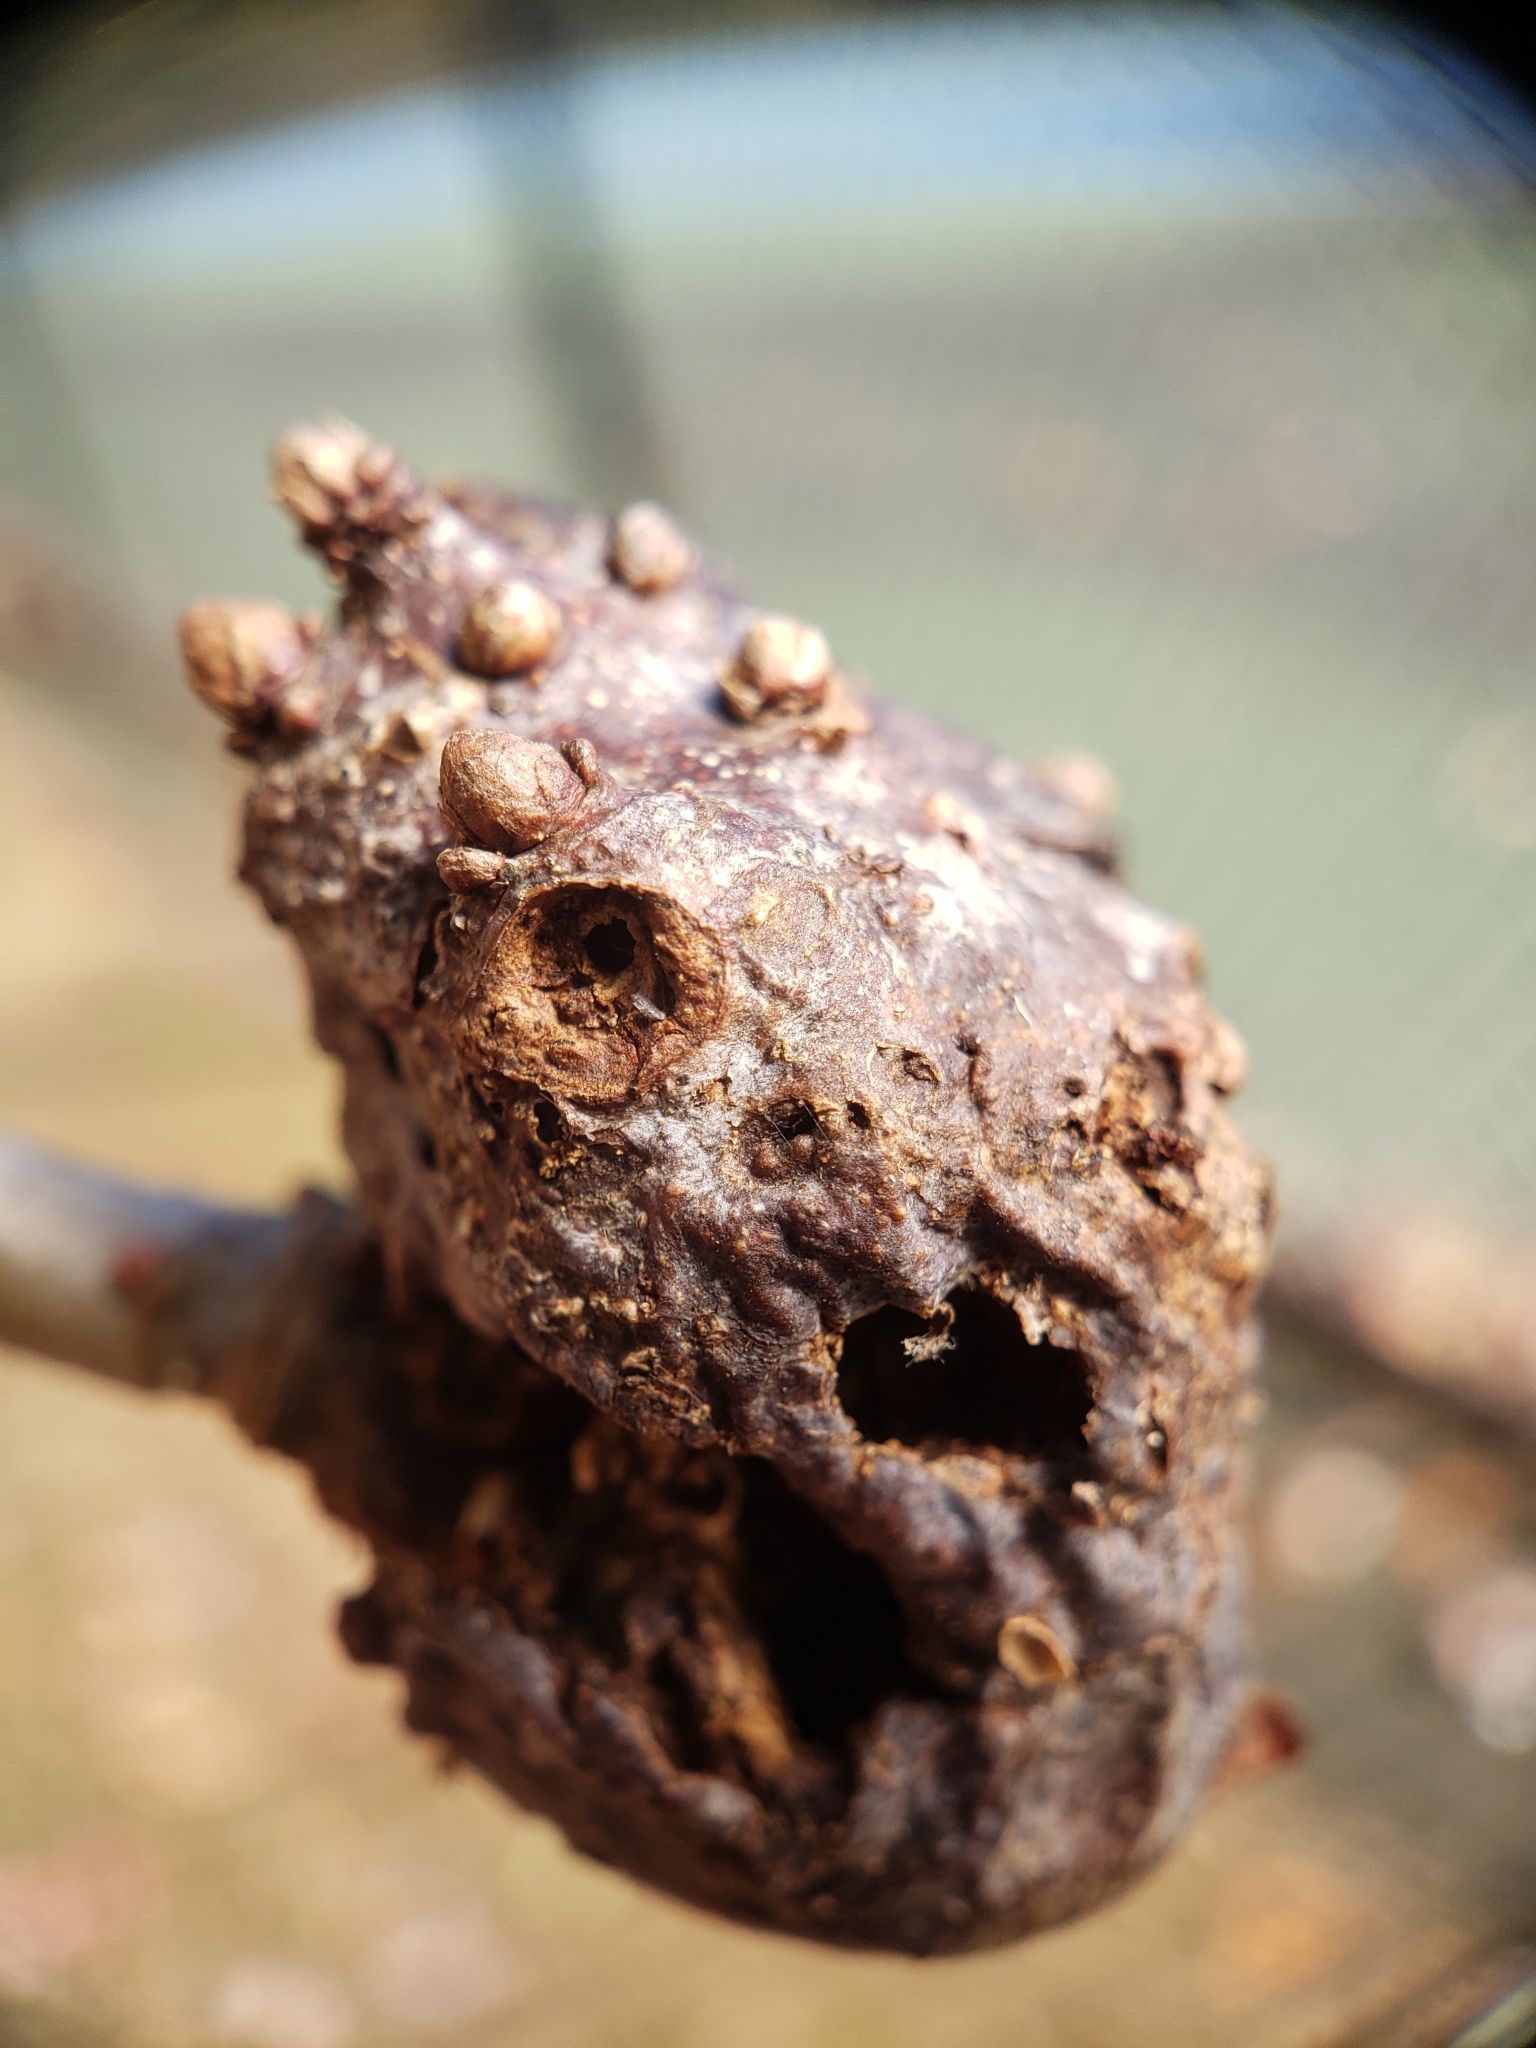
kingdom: Animalia
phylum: Arthropoda
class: Insecta
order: Hymenoptera
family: Cynipidae
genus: Neuroterus
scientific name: Neuroterus quercusbaccarum
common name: Common spangle gall
